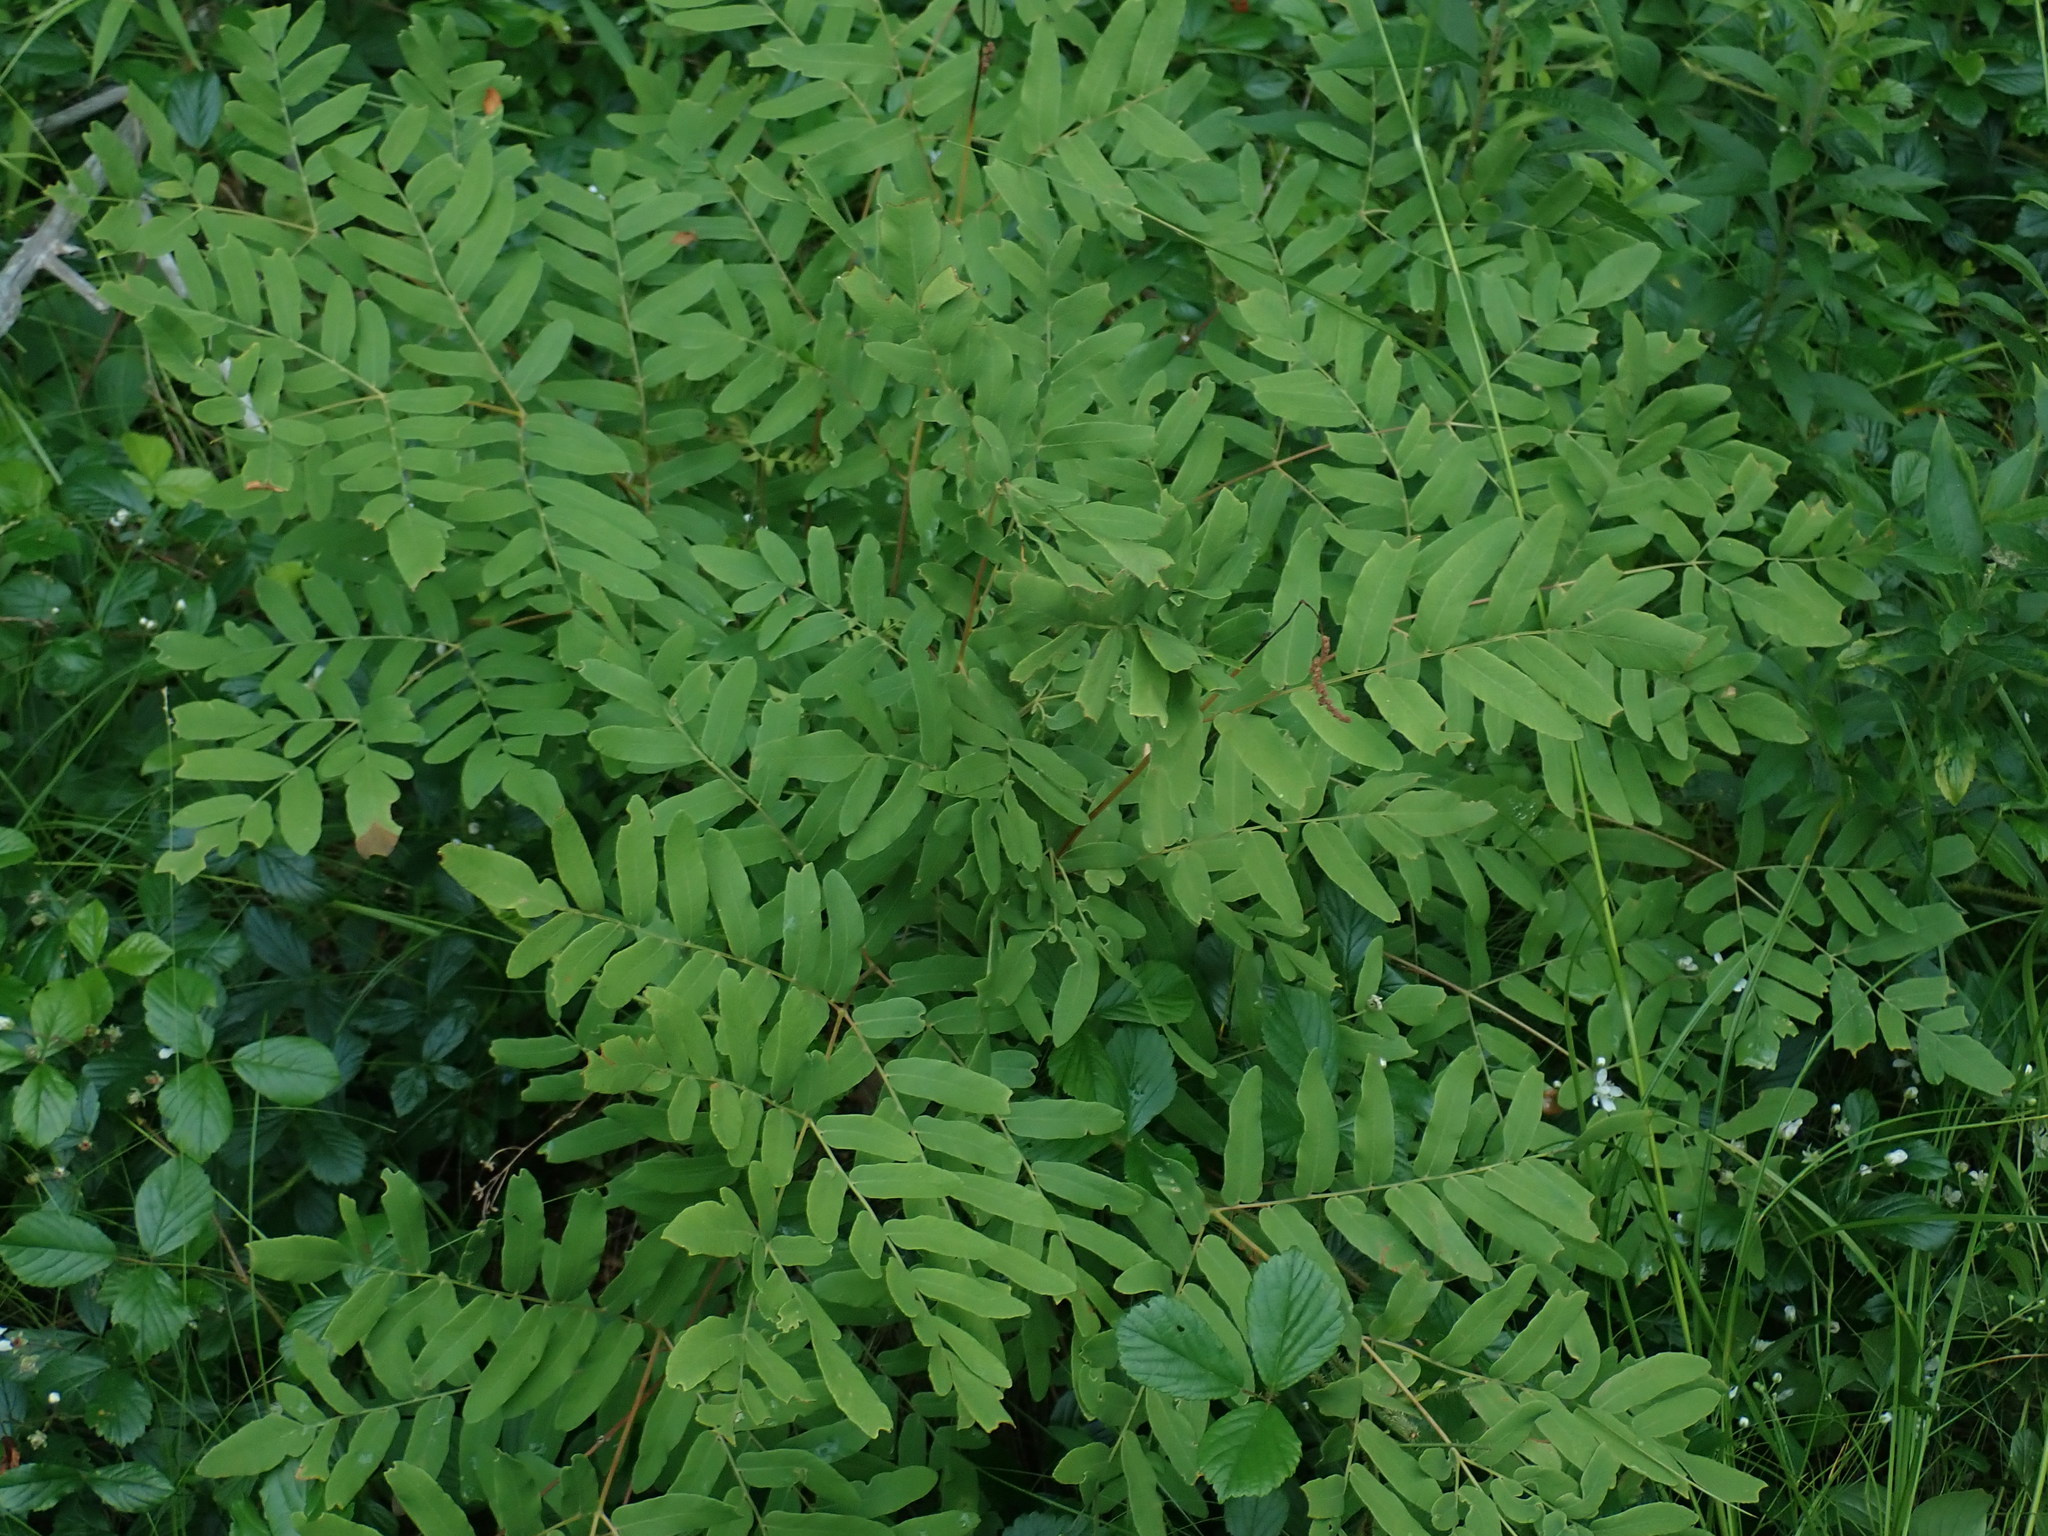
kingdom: Plantae
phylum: Tracheophyta
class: Polypodiopsida
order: Osmundales
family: Osmundaceae
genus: Osmunda
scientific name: Osmunda spectabilis
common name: American royal fern
